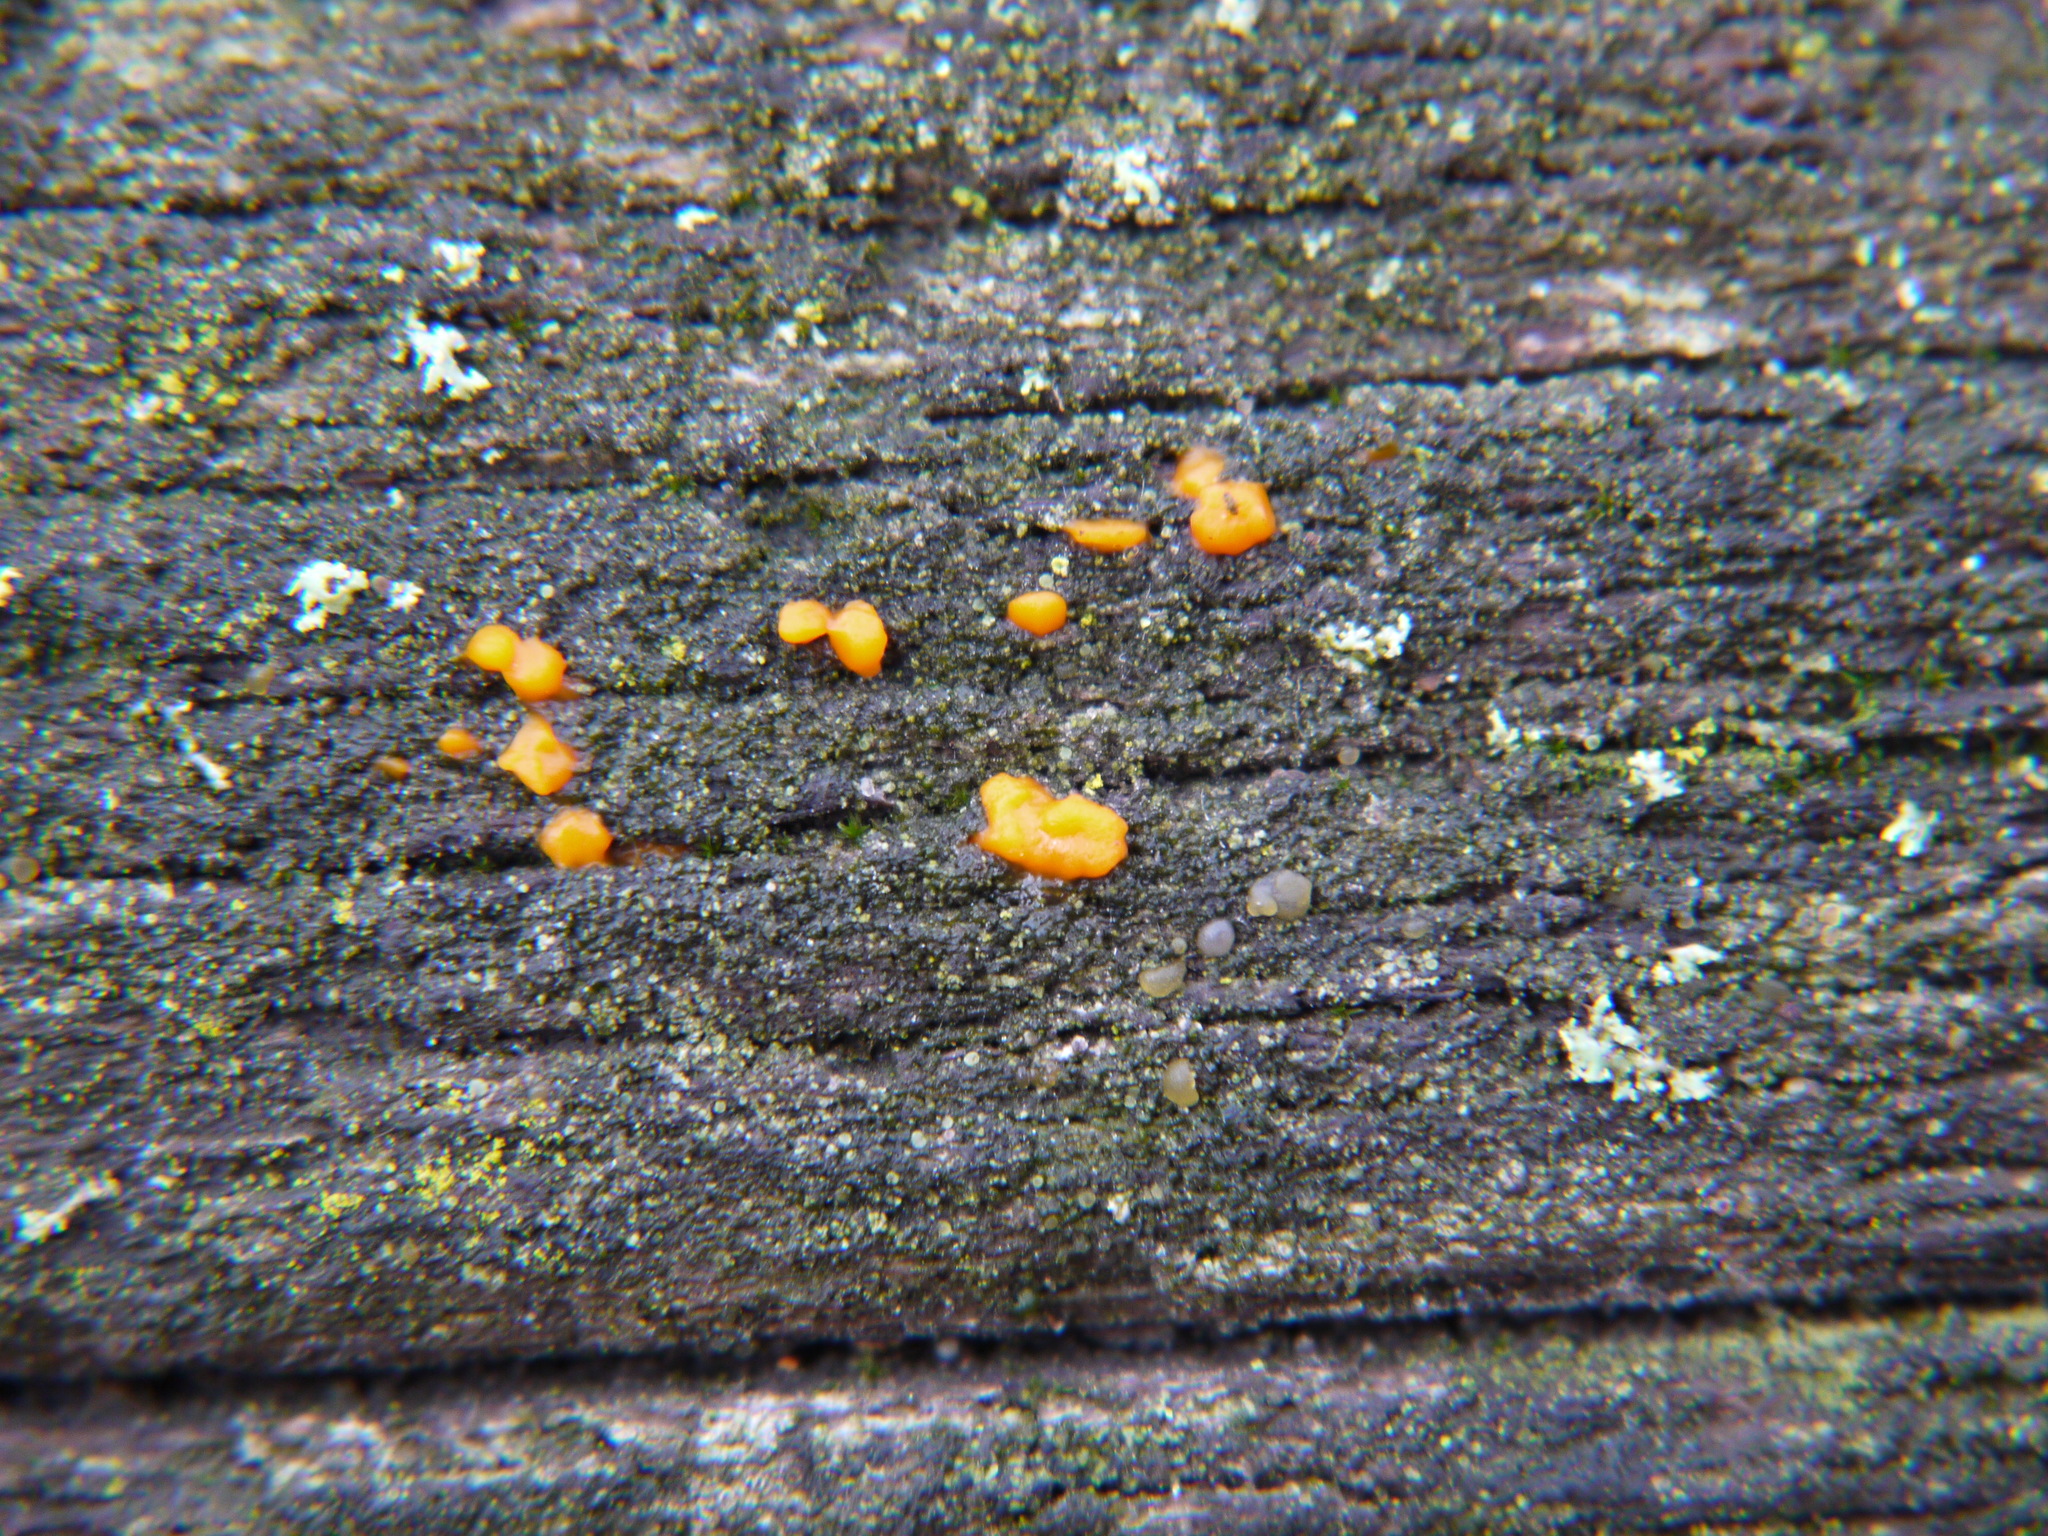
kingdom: Fungi
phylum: Basidiomycota
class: Dacrymycetes
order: Dacrymycetales
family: Dacrymycetaceae
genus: Dacrymyces
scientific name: Dacrymyces stillatus
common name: Common jelly spot
